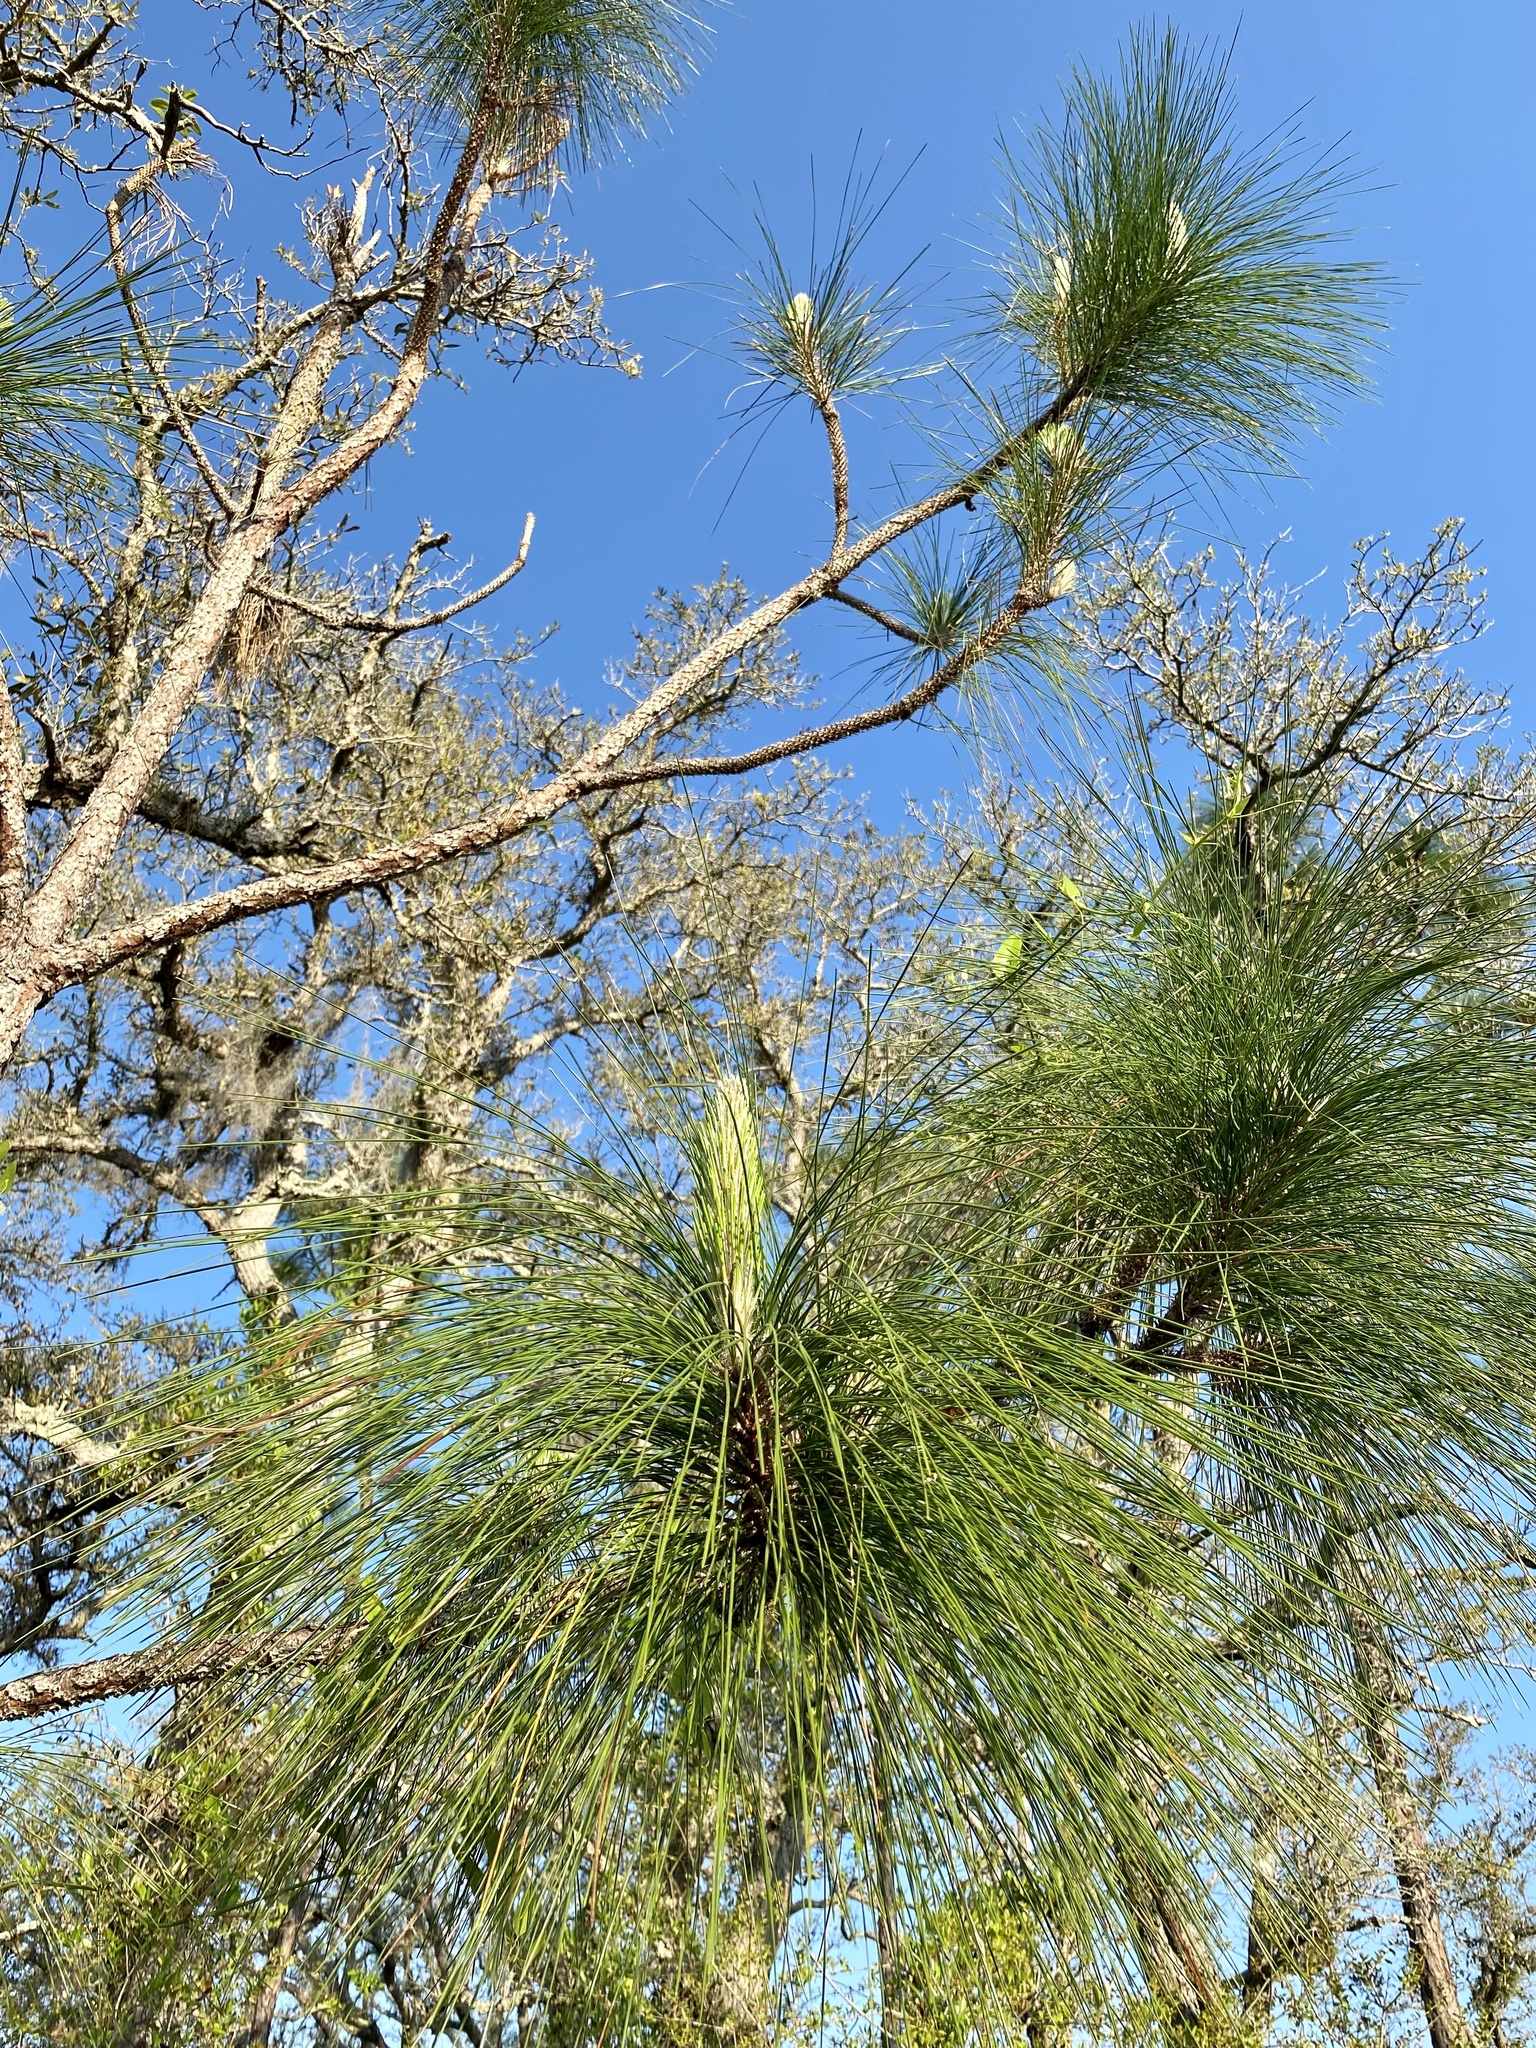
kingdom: Plantae
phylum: Tracheophyta
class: Pinopsida
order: Pinales
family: Pinaceae
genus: Pinus
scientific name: Pinus palustris
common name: Longleaf pine
